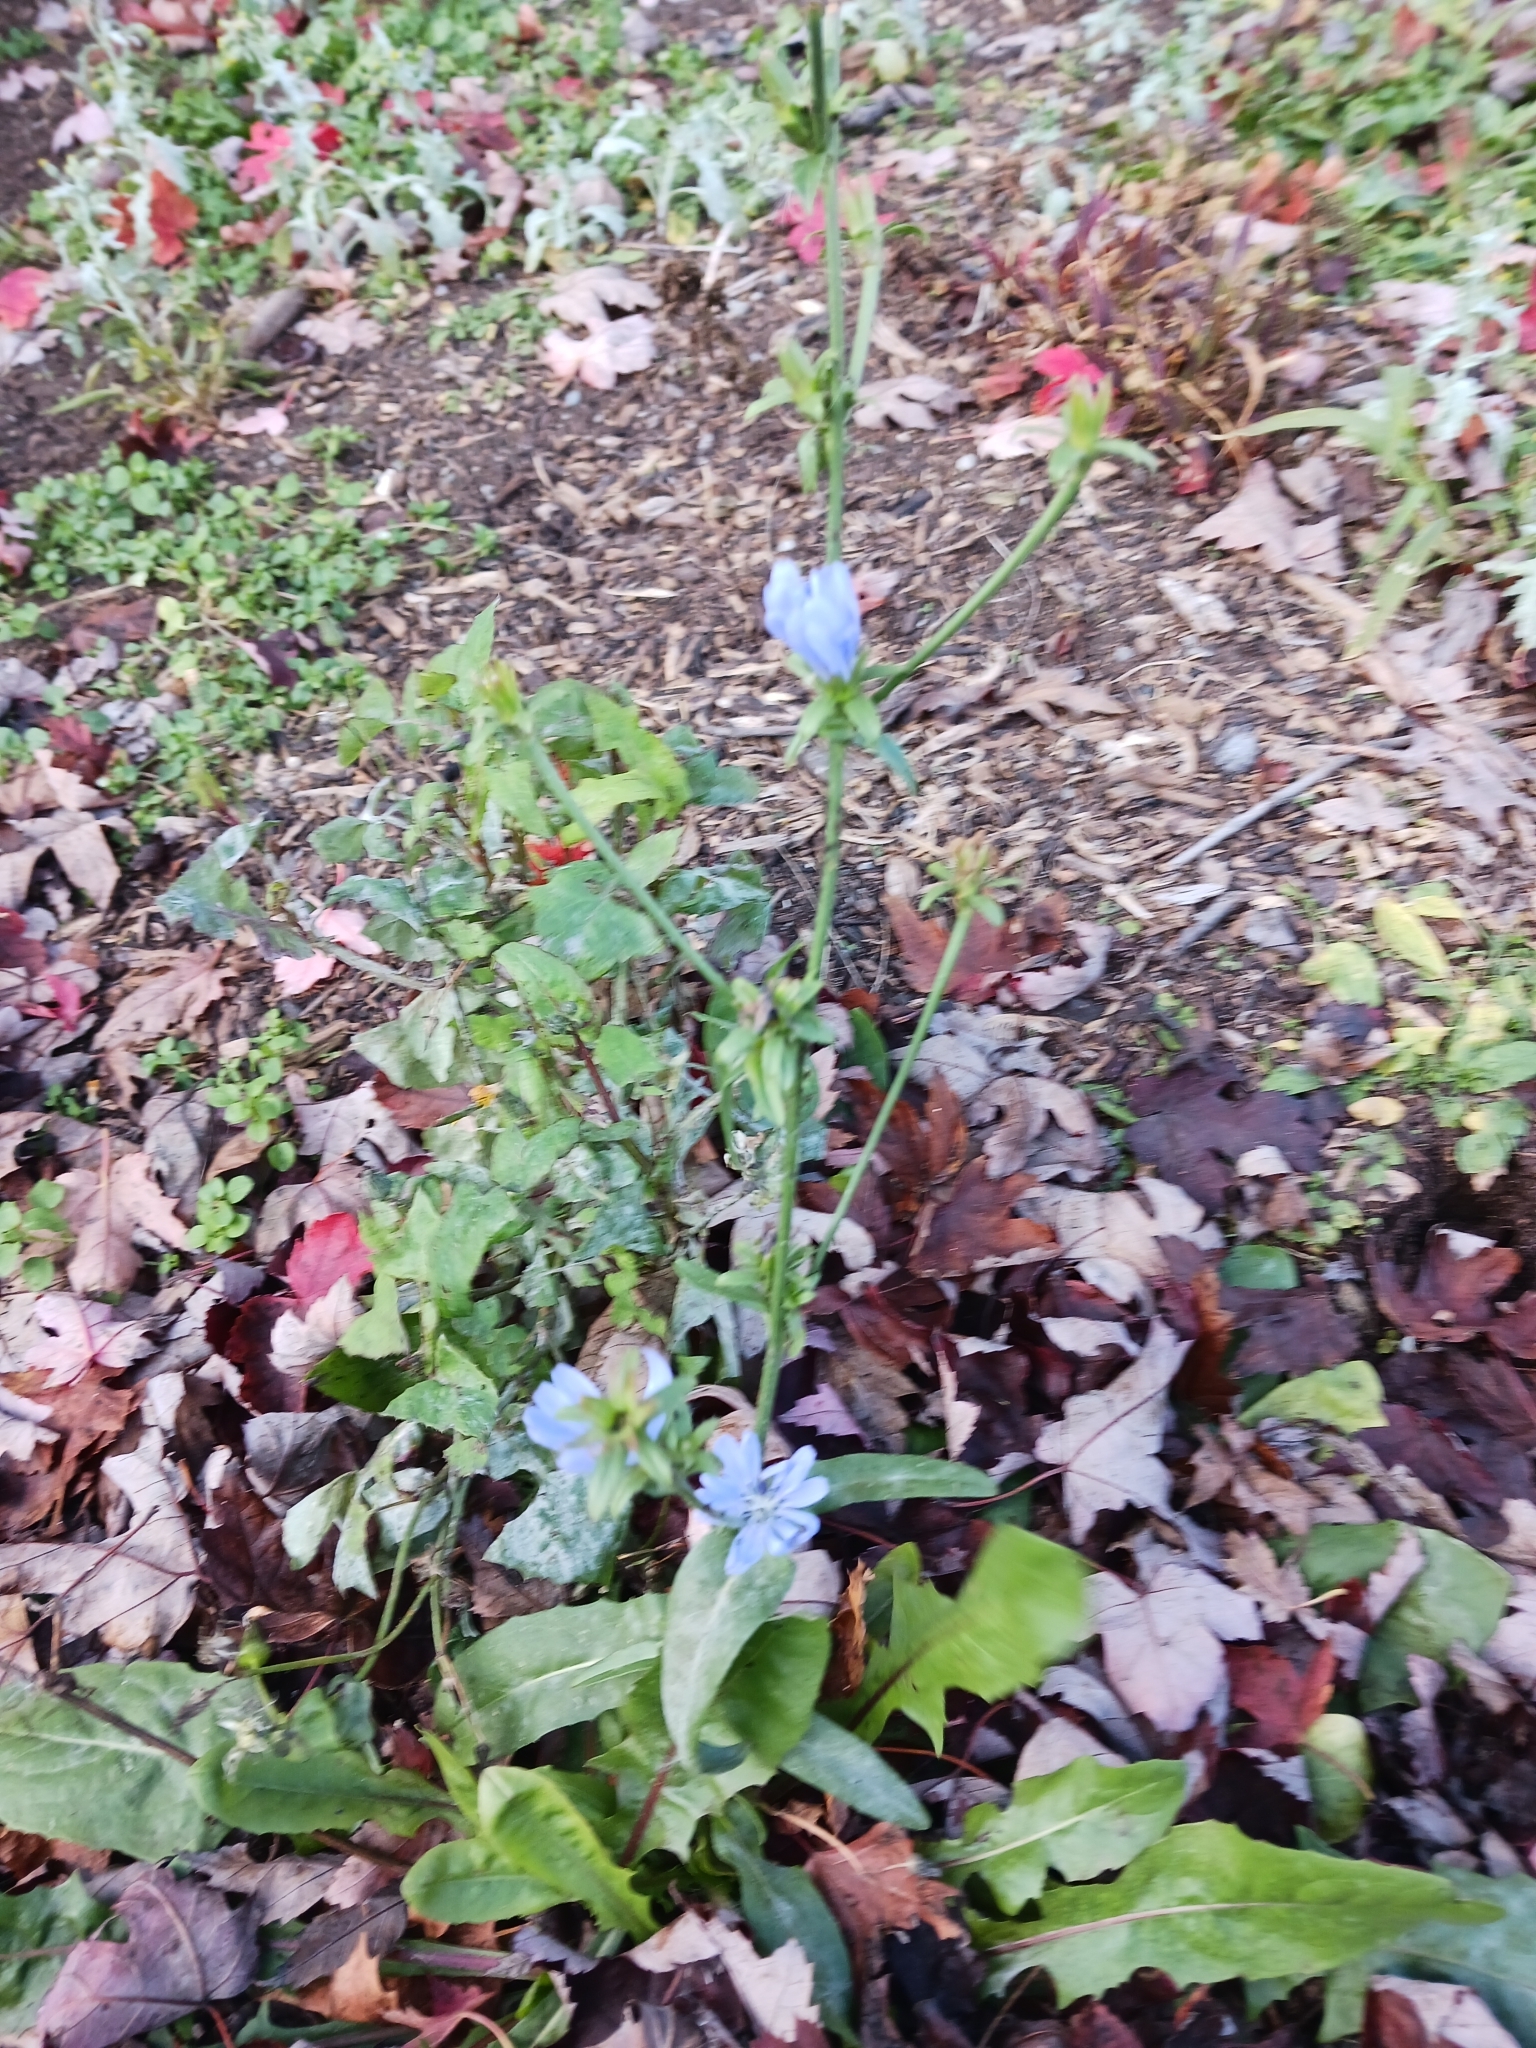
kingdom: Plantae
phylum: Tracheophyta
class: Magnoliopsida
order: Asterales
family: Asteraceae
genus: Cichorium
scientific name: Cichorium intybus
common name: Chicory
